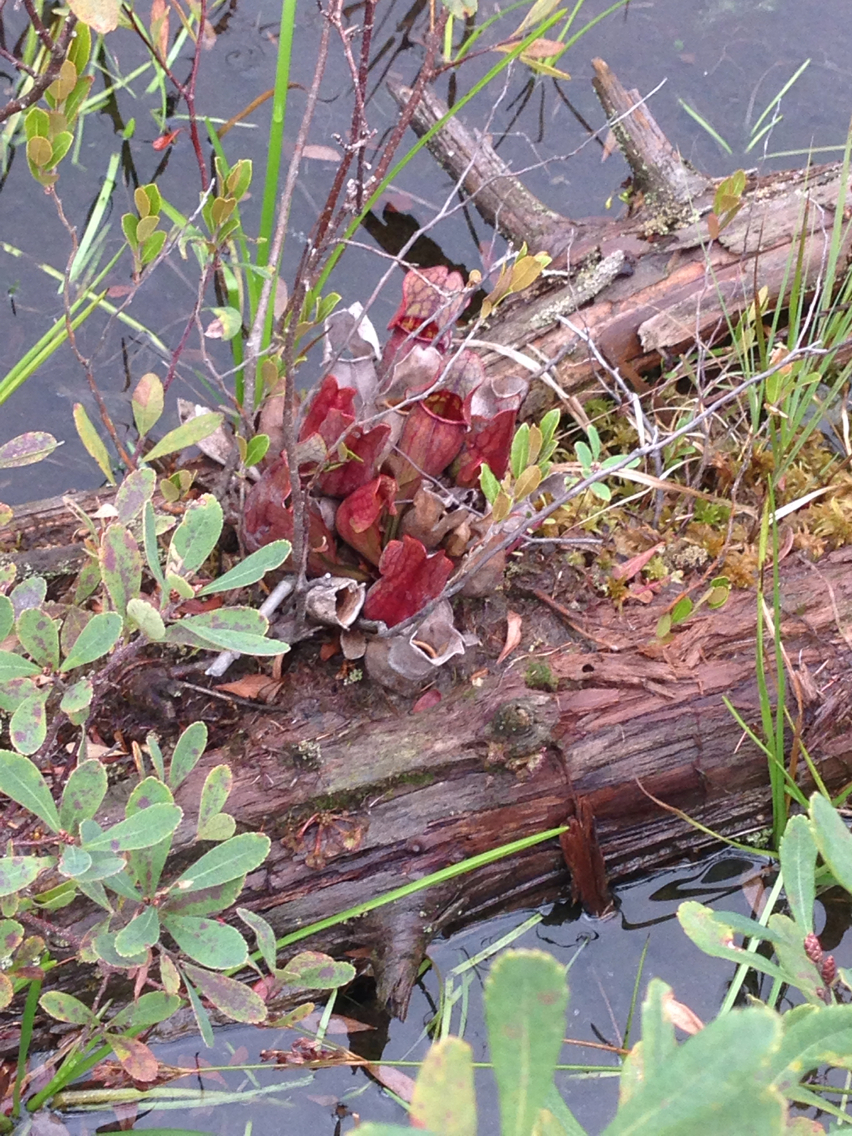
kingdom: Plantae
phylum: Tracheophyta
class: Magnoliopsida
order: Ericales
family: Sarraceniaceae
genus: Sarracenia
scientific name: Sarracenia purpurea
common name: Pitcherplant
